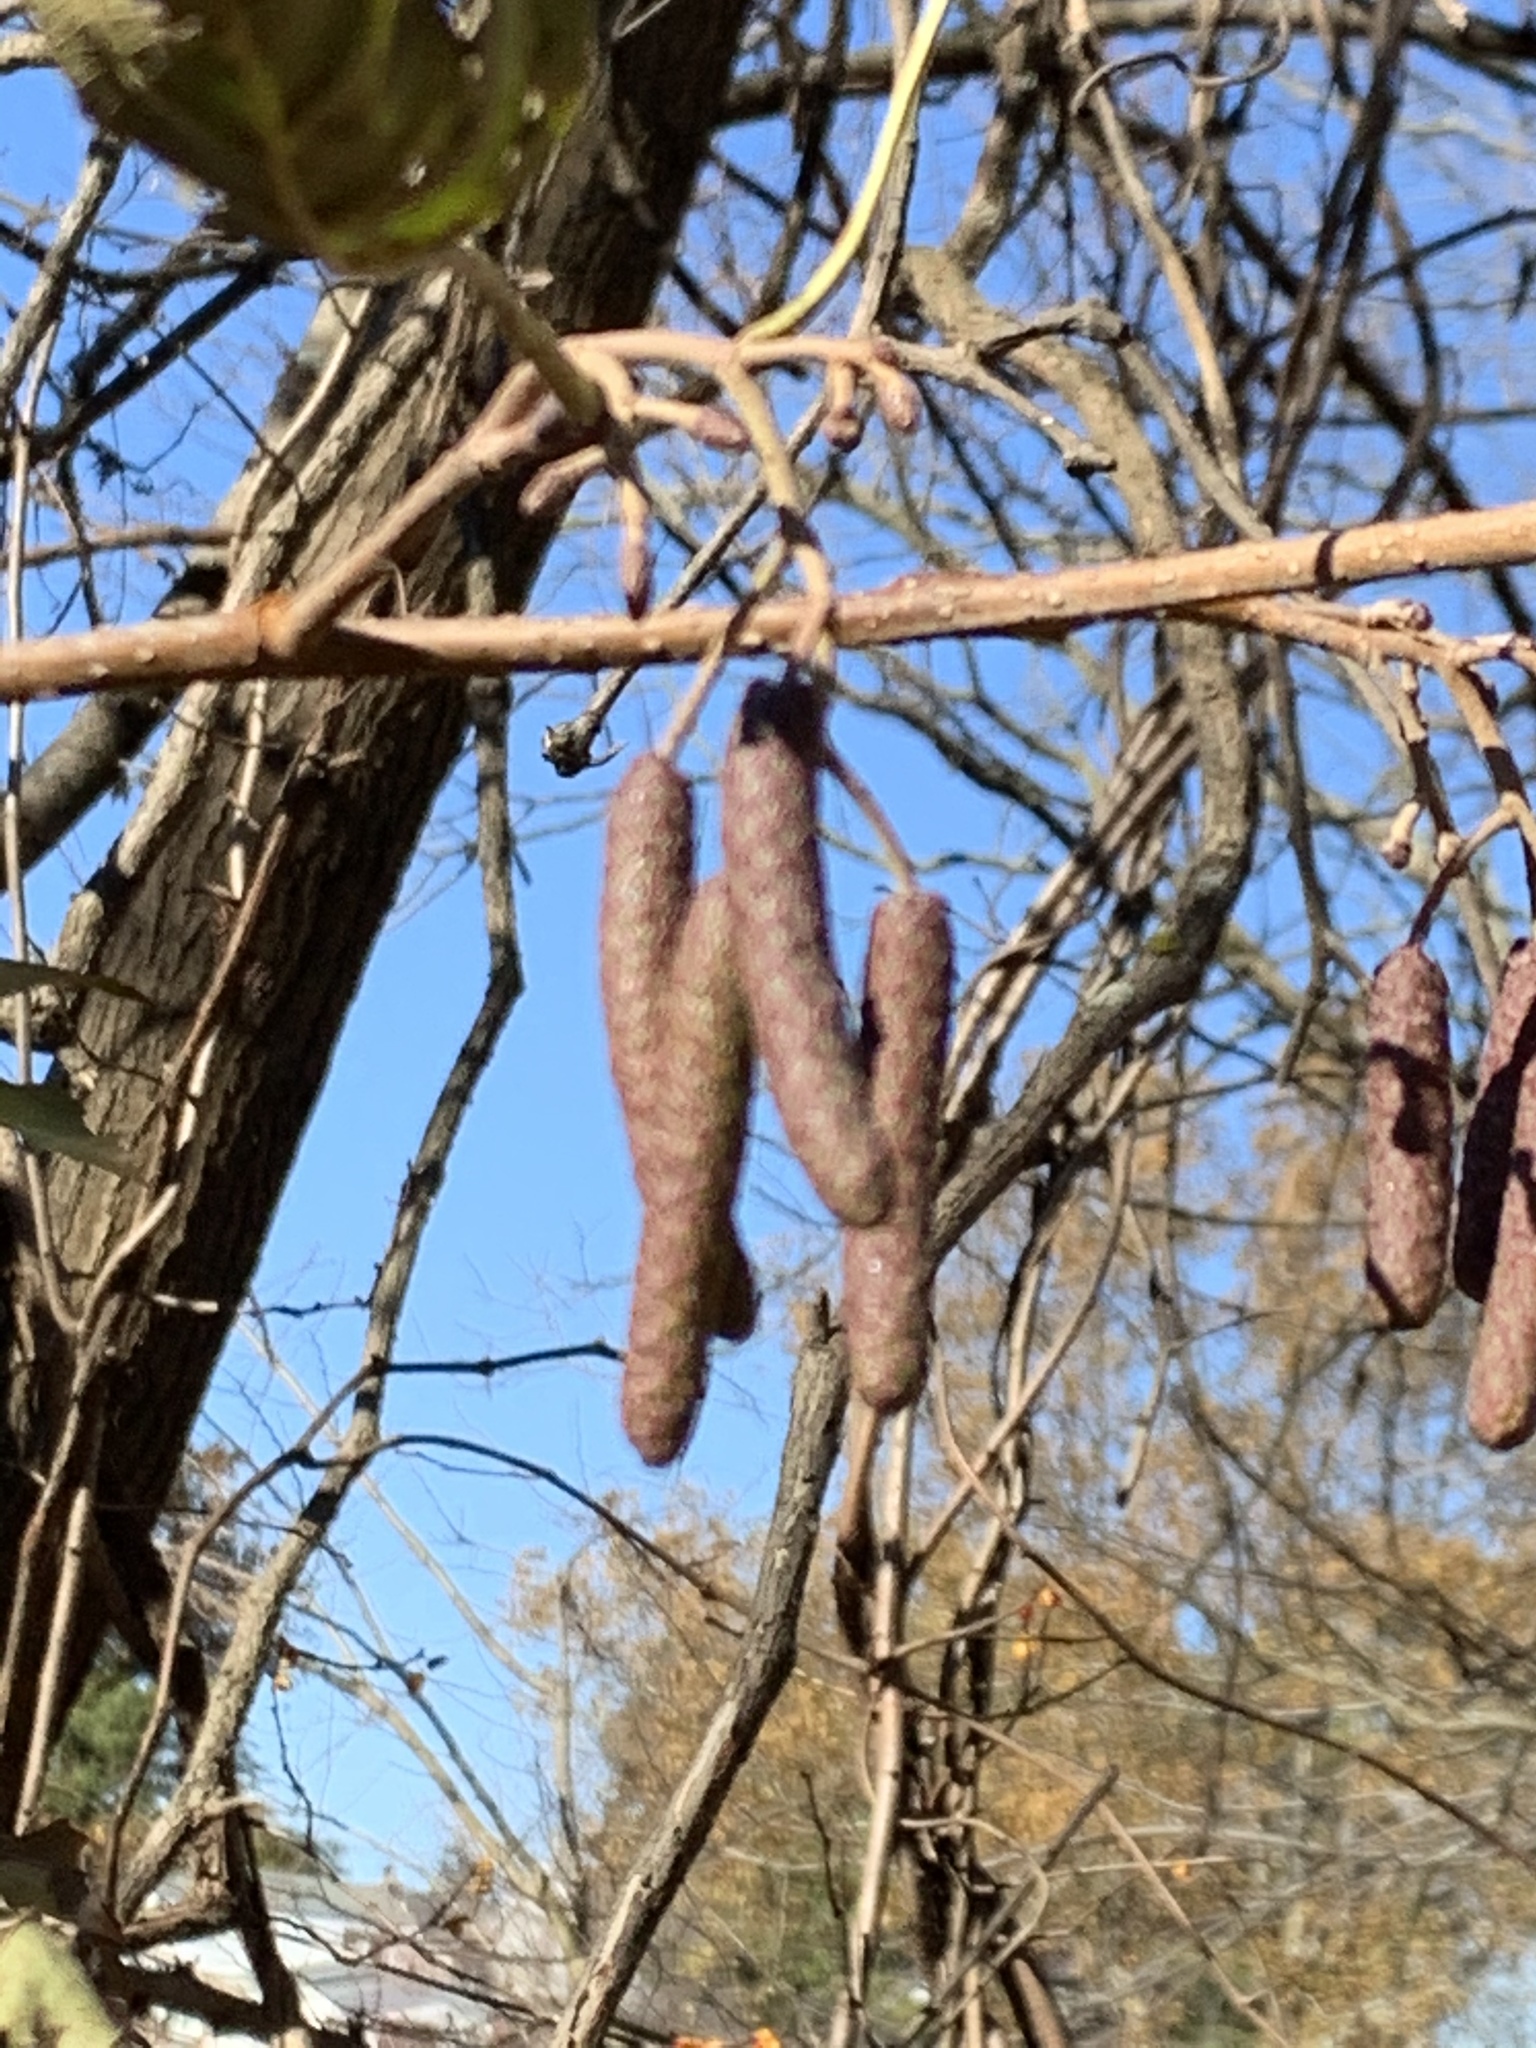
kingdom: Plantae
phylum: Tracheophyta
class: Magnoliopsida
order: Fagales
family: Betulaceae
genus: Alnus
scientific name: Alnus glutinosa
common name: Black alder
